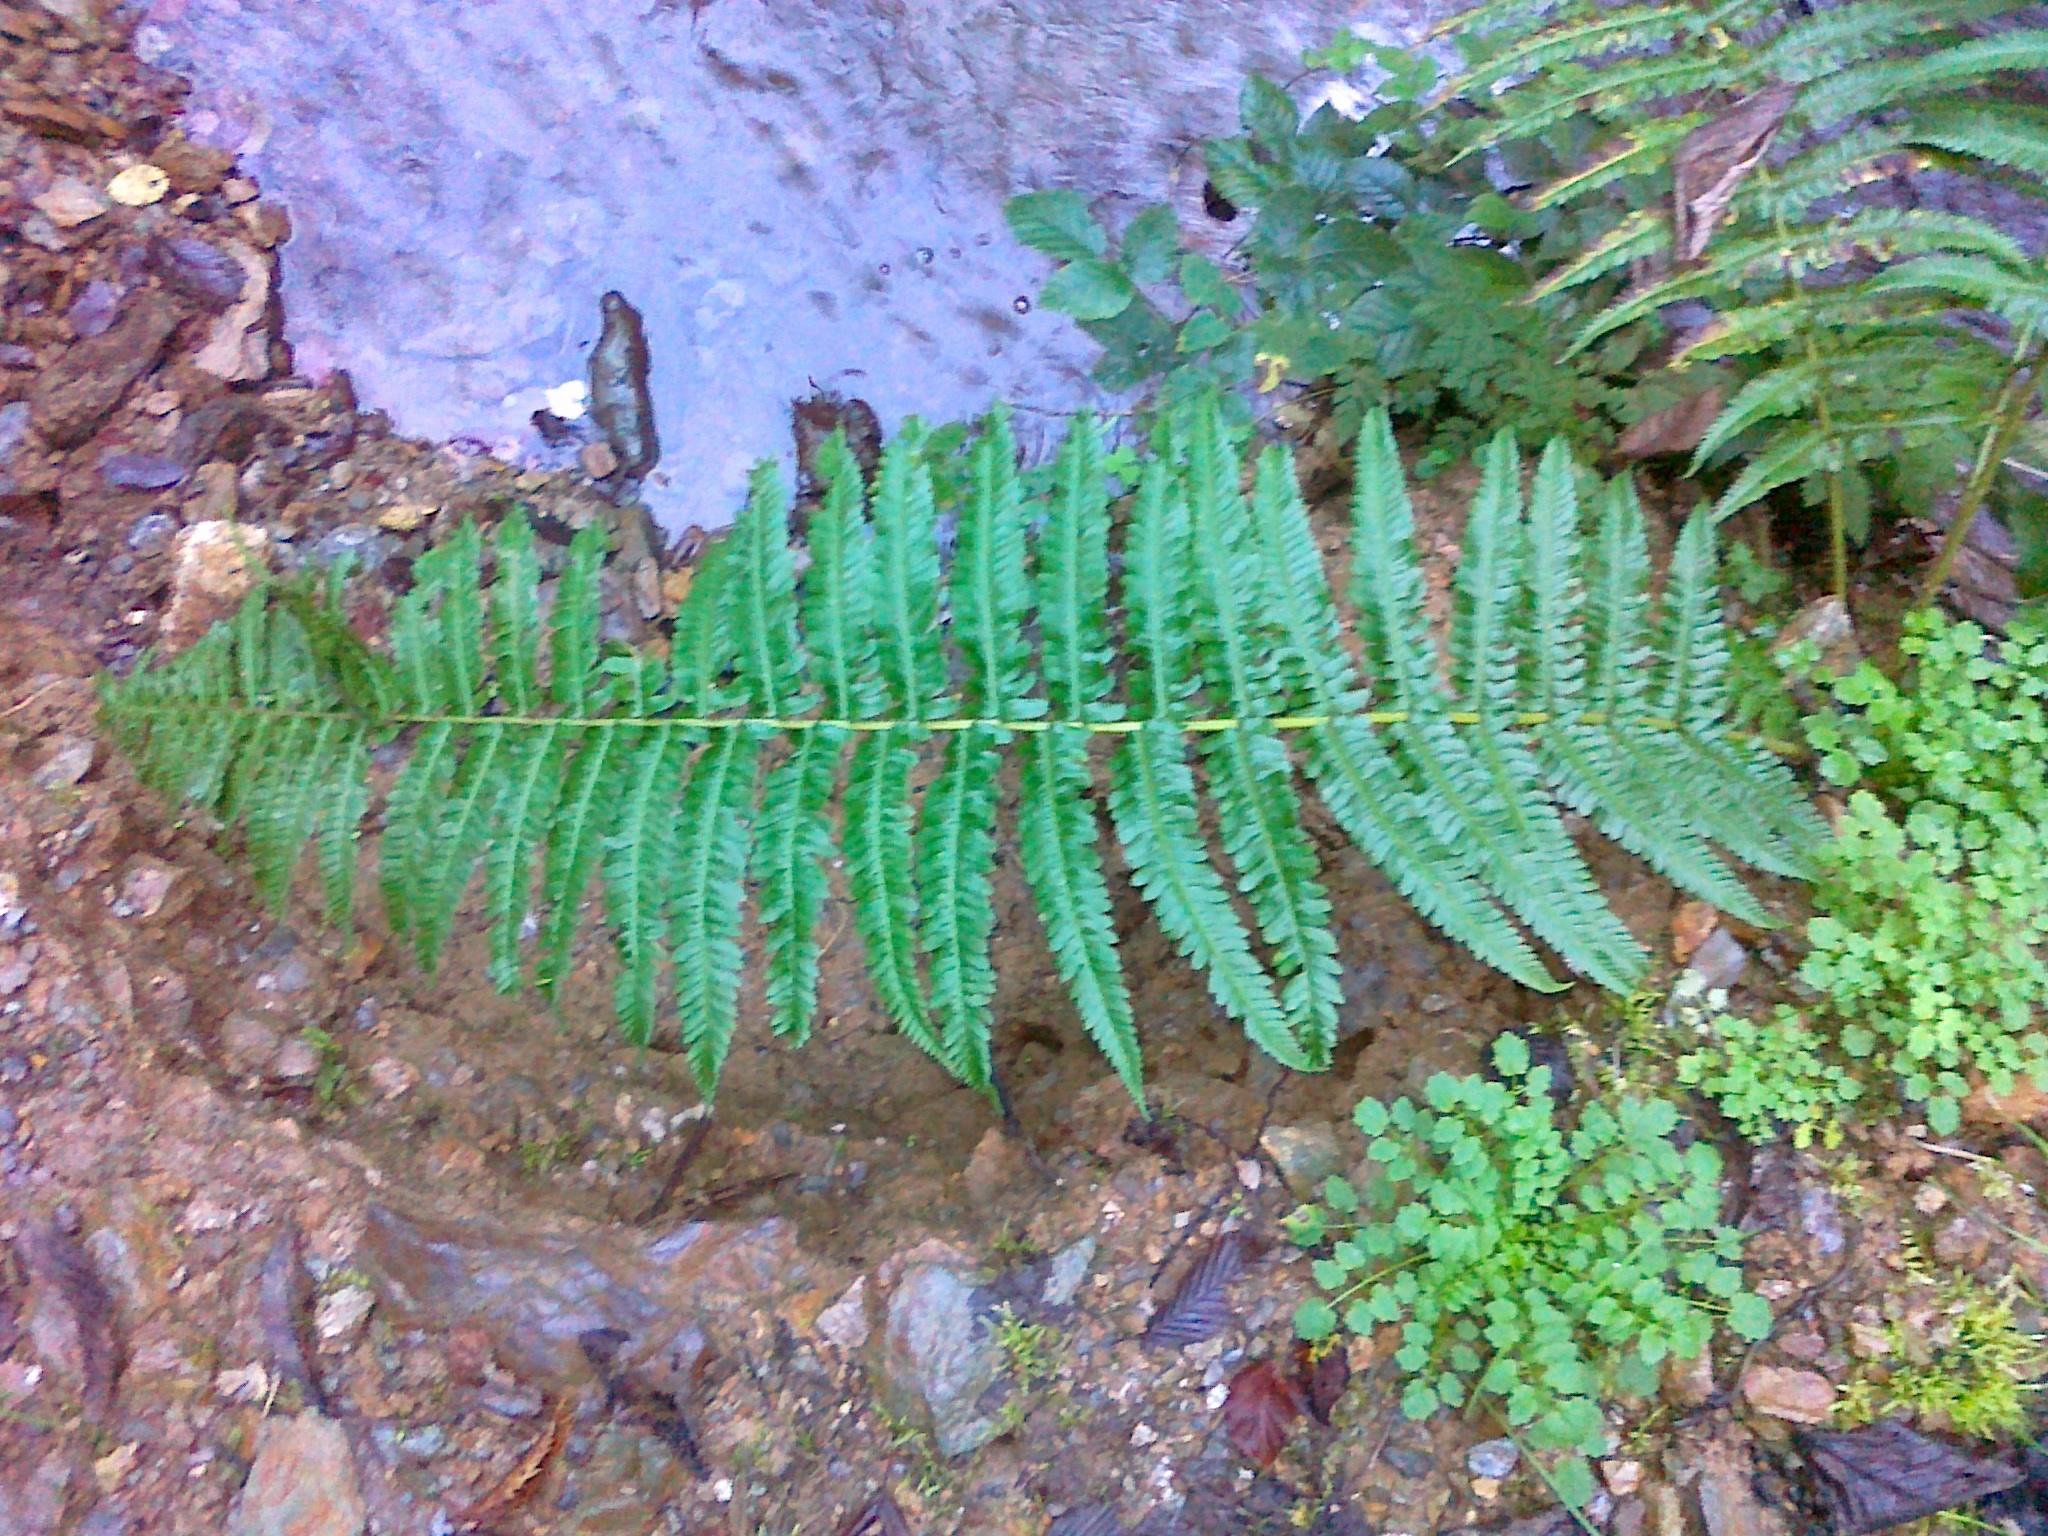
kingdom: Plantae
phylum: Tracheophyta
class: Polypodiopsida
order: Polypodiales
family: Dryopteridaceae
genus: Dryopteris
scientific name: Dryopteris borreri
